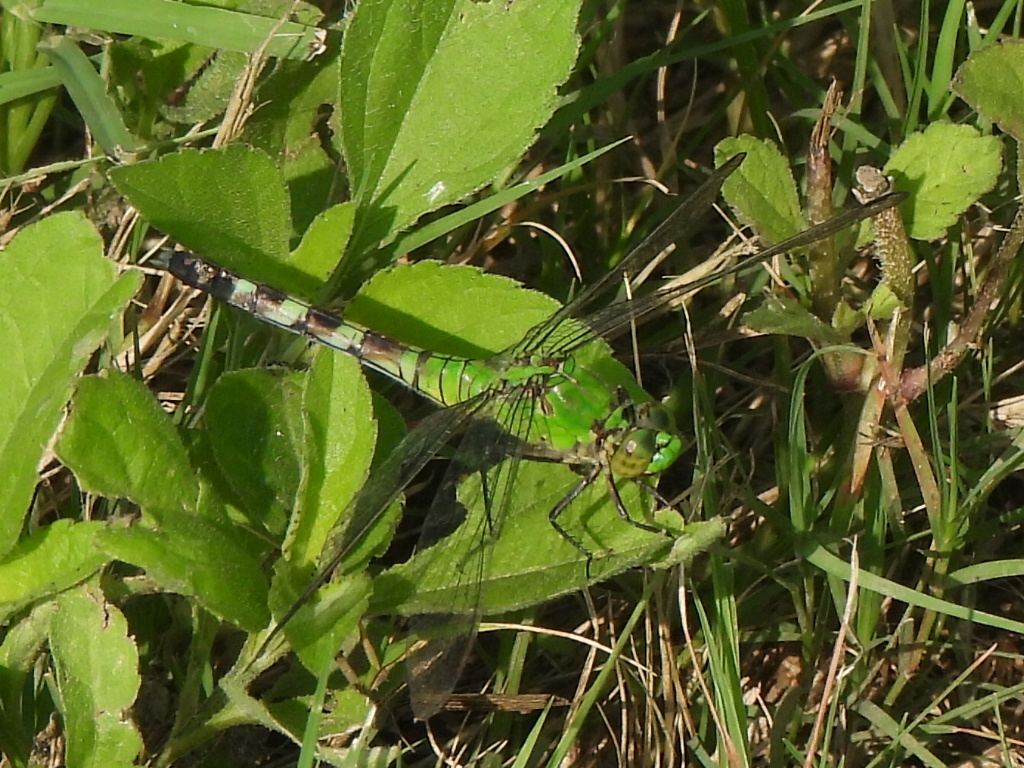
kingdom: Animalia
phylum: Arthropoda
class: Insecta
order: Odonata
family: Libellulidae
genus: Erythemis
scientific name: Erythemis simplicicollis
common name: Eastern pondhawk
